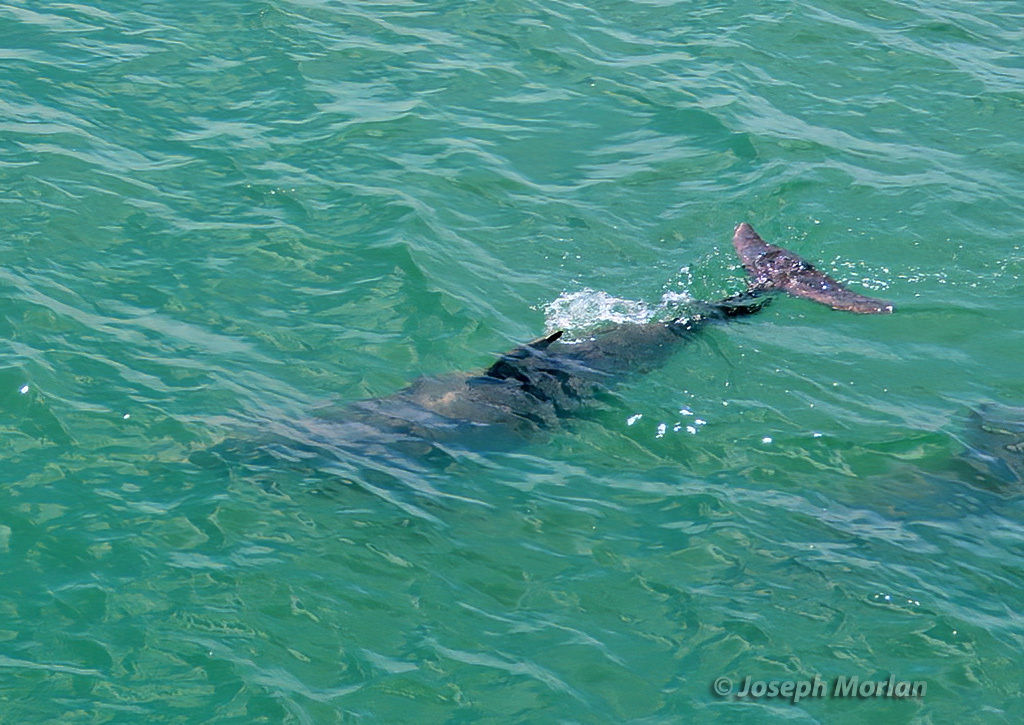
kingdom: Animalia
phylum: Chordata
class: Mammalia
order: Cetacea
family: Delphinidae
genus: Tursiops
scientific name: Tursiops truncatus
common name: Bottlenose dolphin
